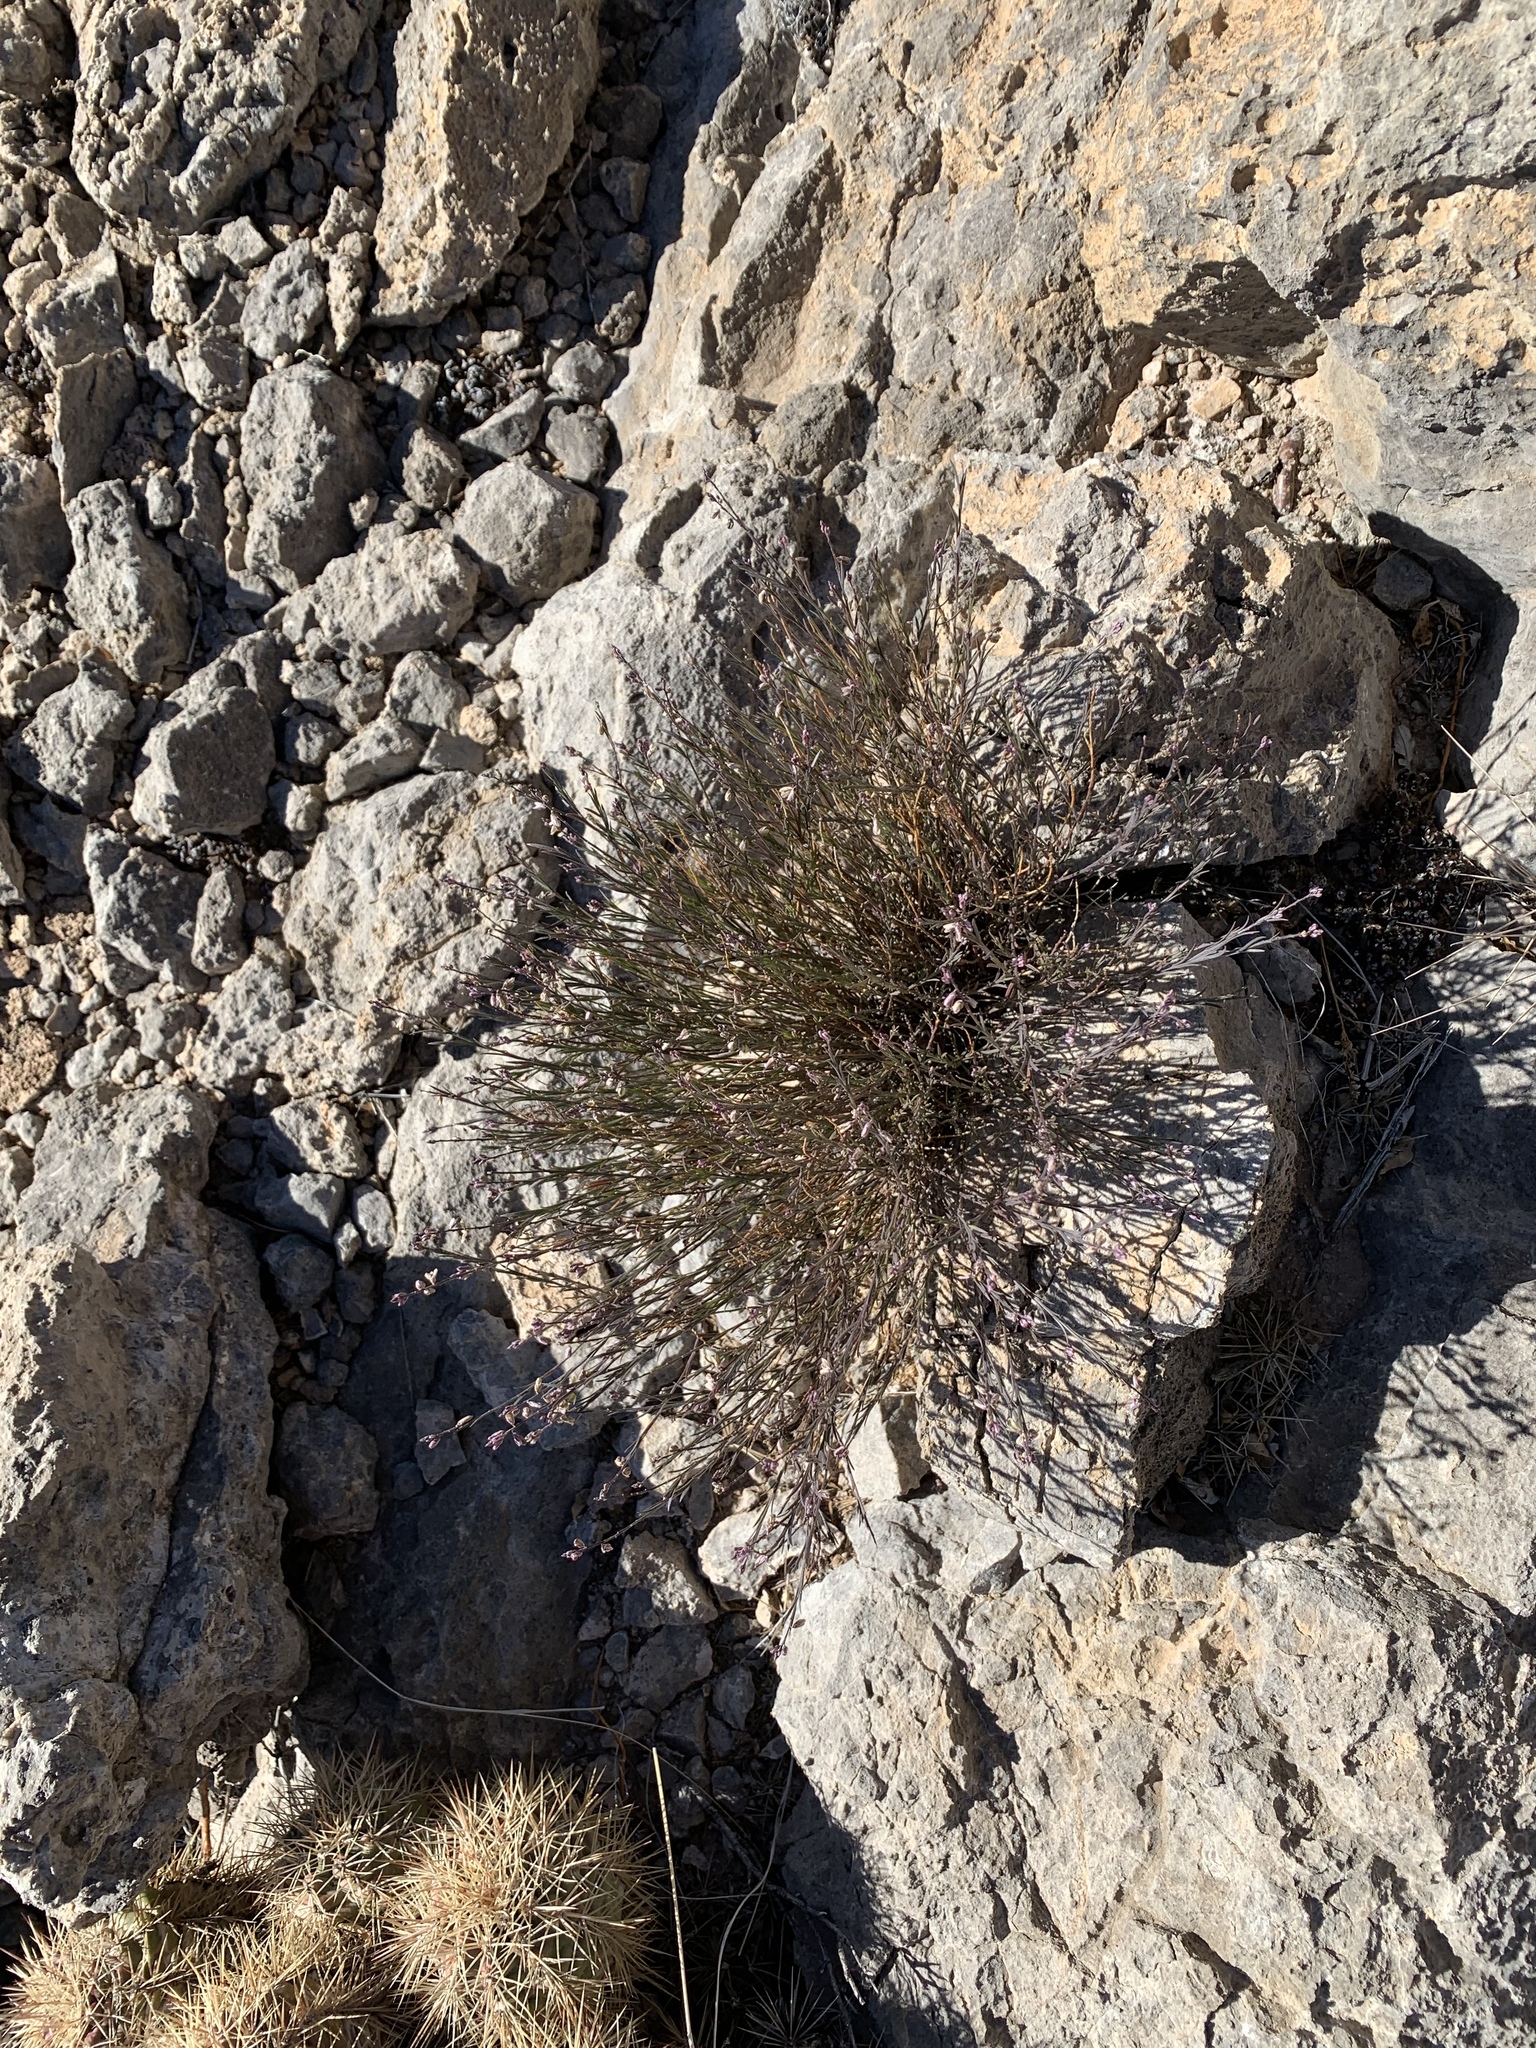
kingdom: Plantae
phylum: Tracheophyta
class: Magnoliopsida
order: Fabales
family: Polygalaceae
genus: Polygala
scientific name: Polygala scoparioides
